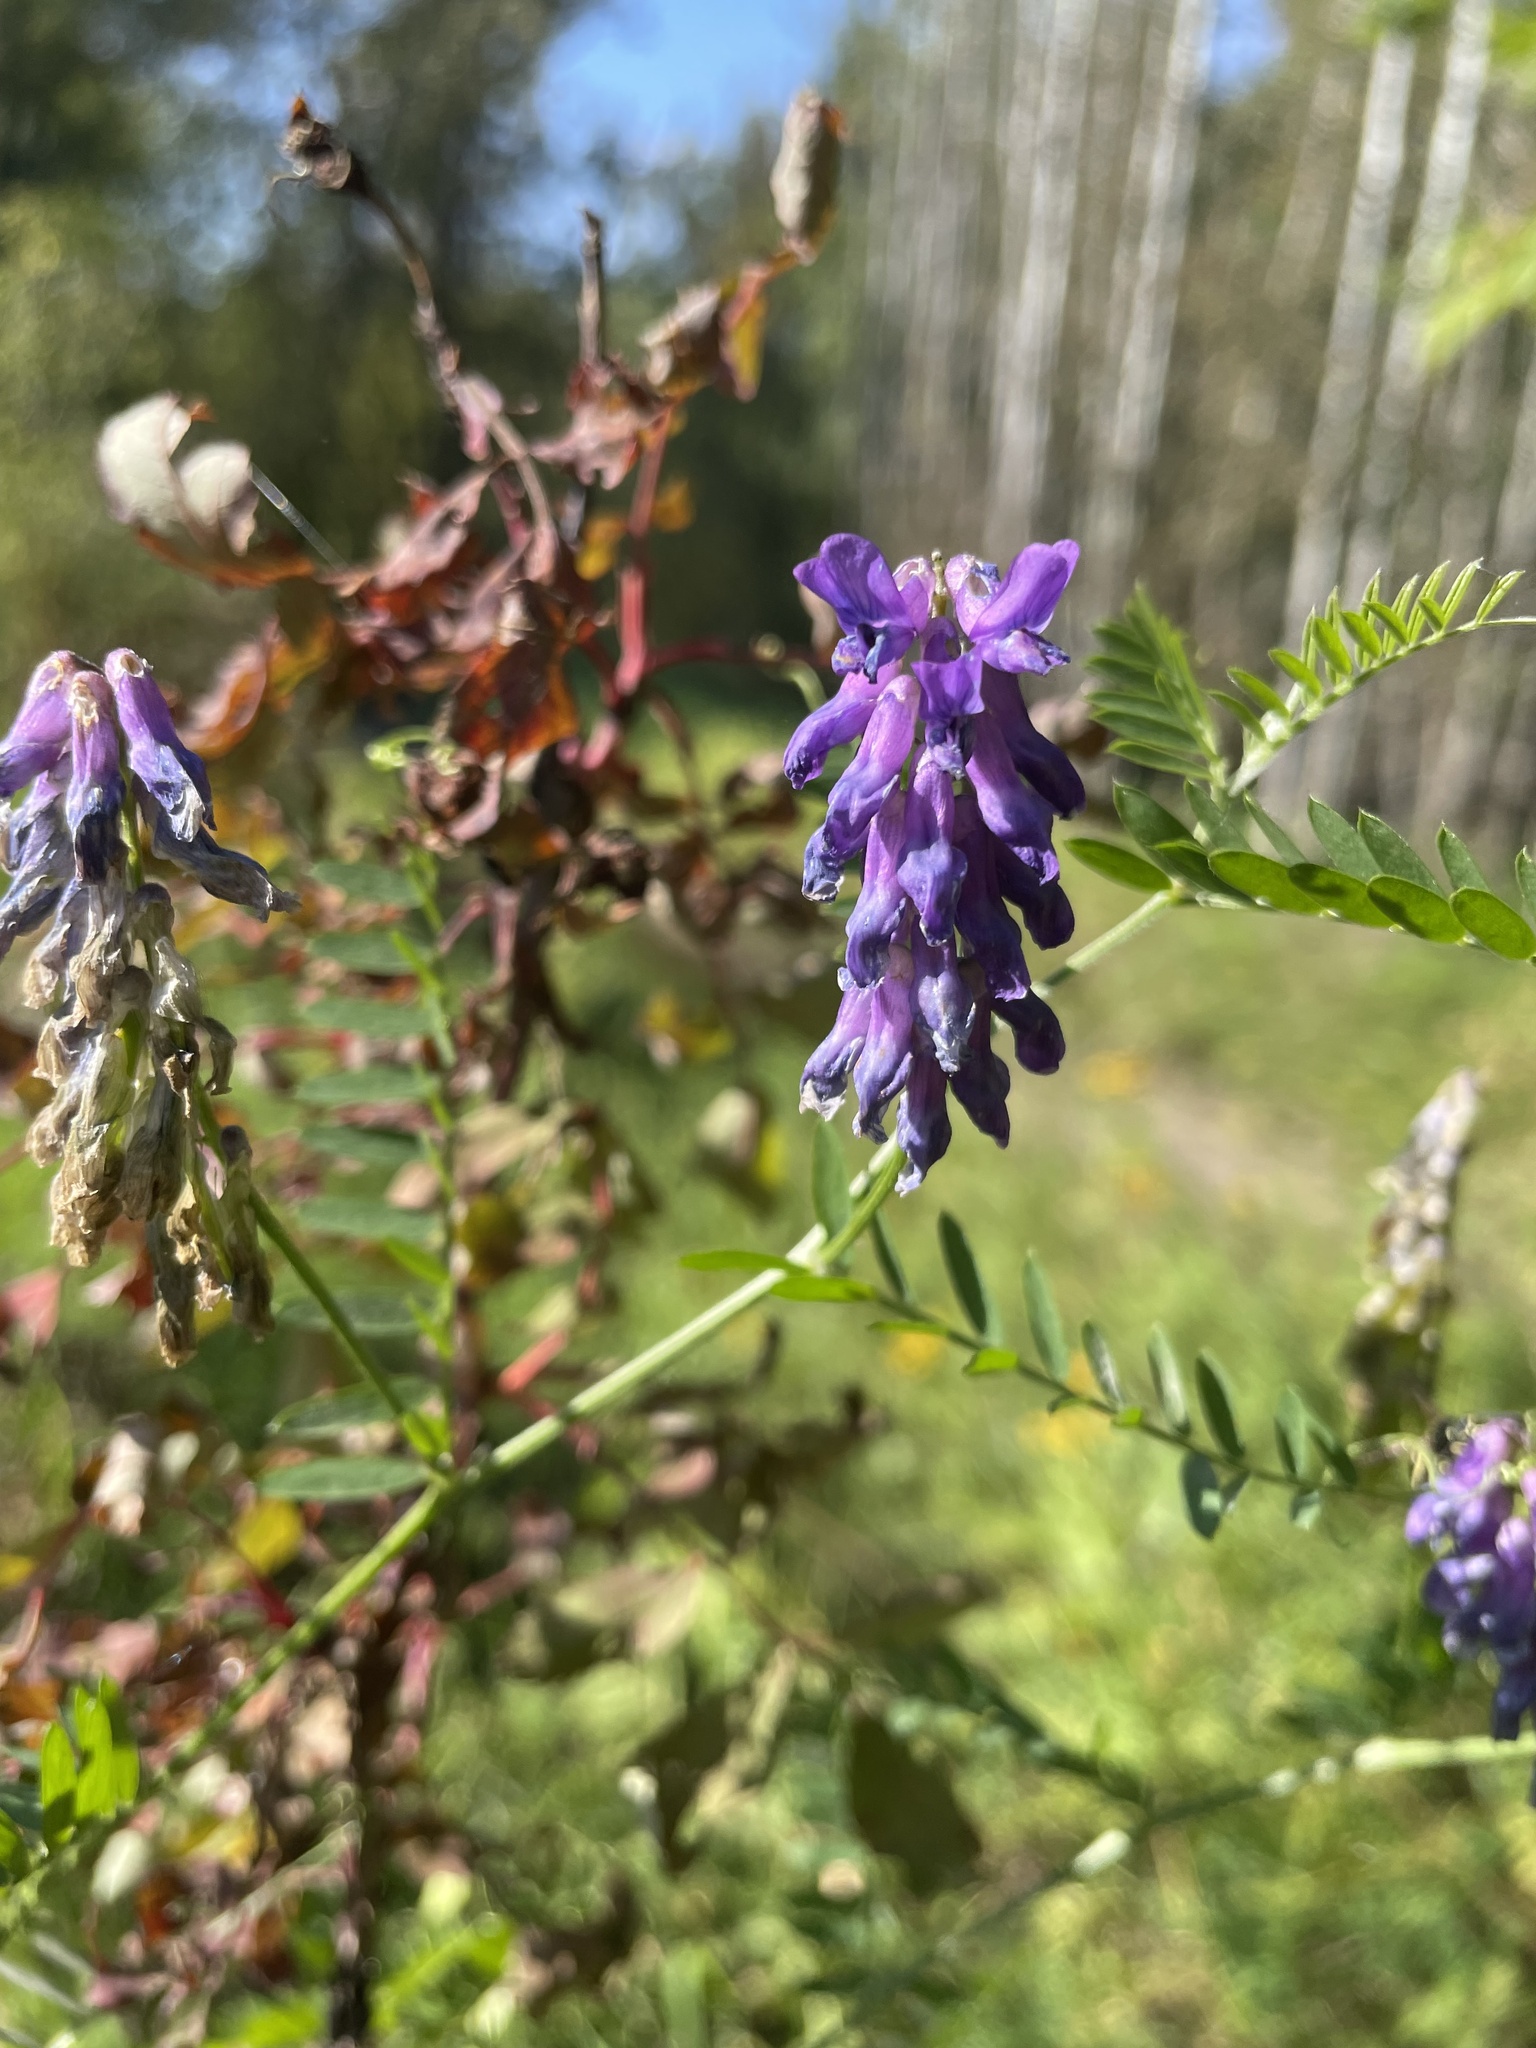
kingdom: Plantae
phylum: Tracheophyta
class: Magnoliopsida
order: Fabales
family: Fabaceae
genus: Vicia
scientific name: Vicia cracca
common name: Bird vetch
